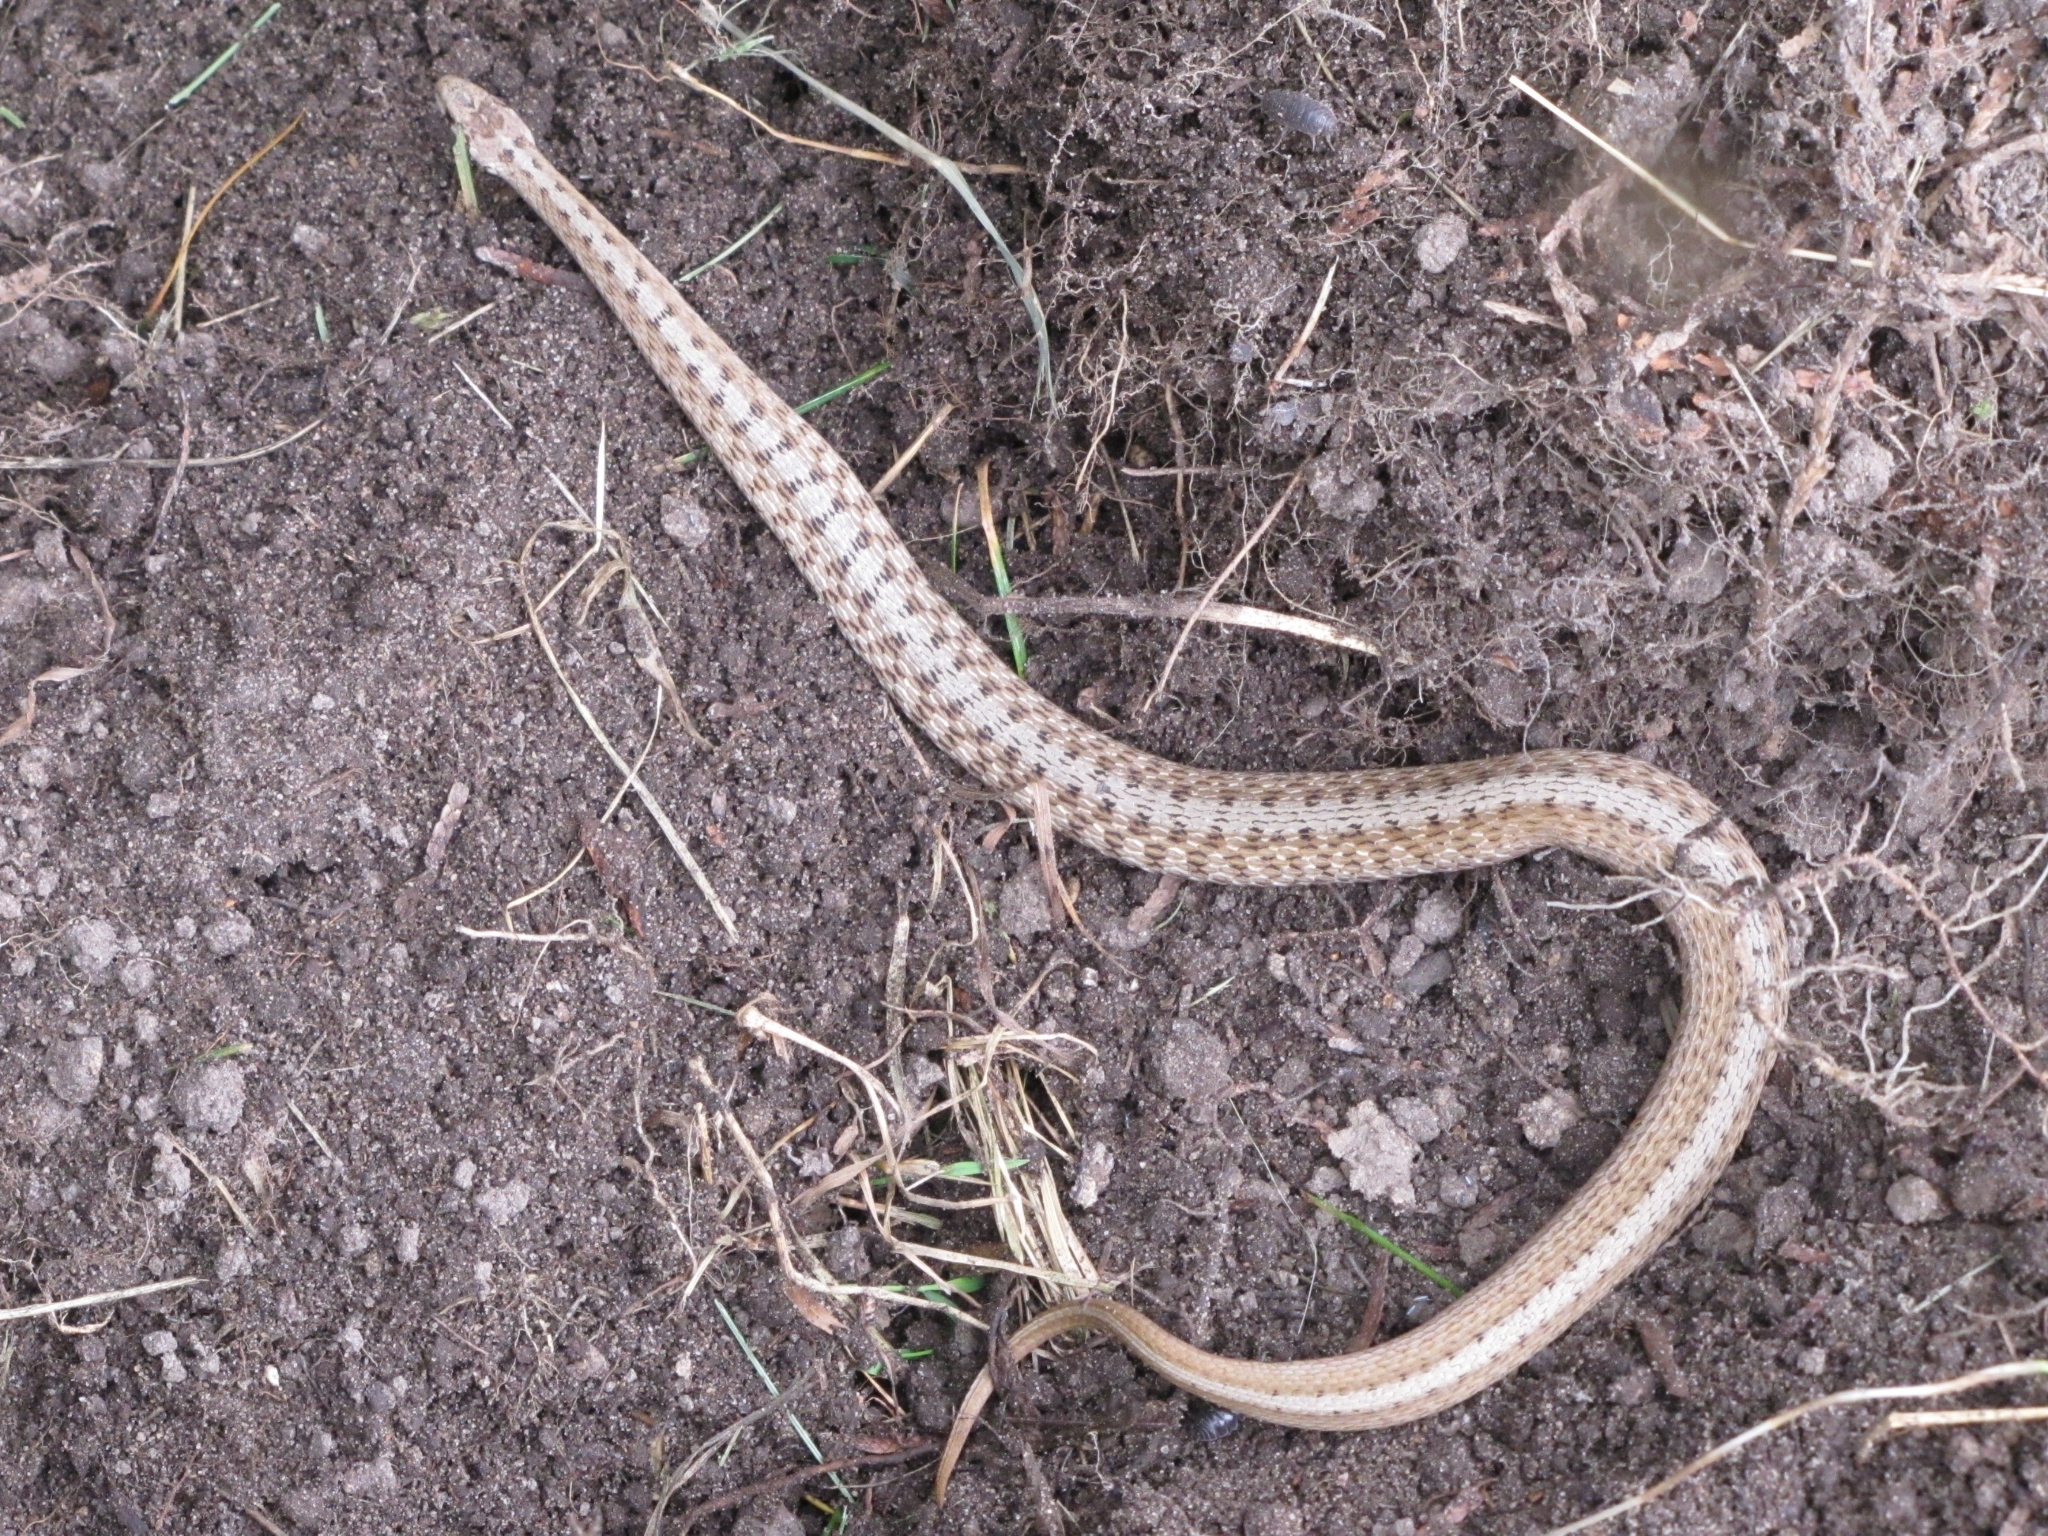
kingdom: Animalia
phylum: Chordata
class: Squamata
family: Colubridae
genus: Storeria
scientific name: Storeria dekayi
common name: (dekay’s) brown snake
